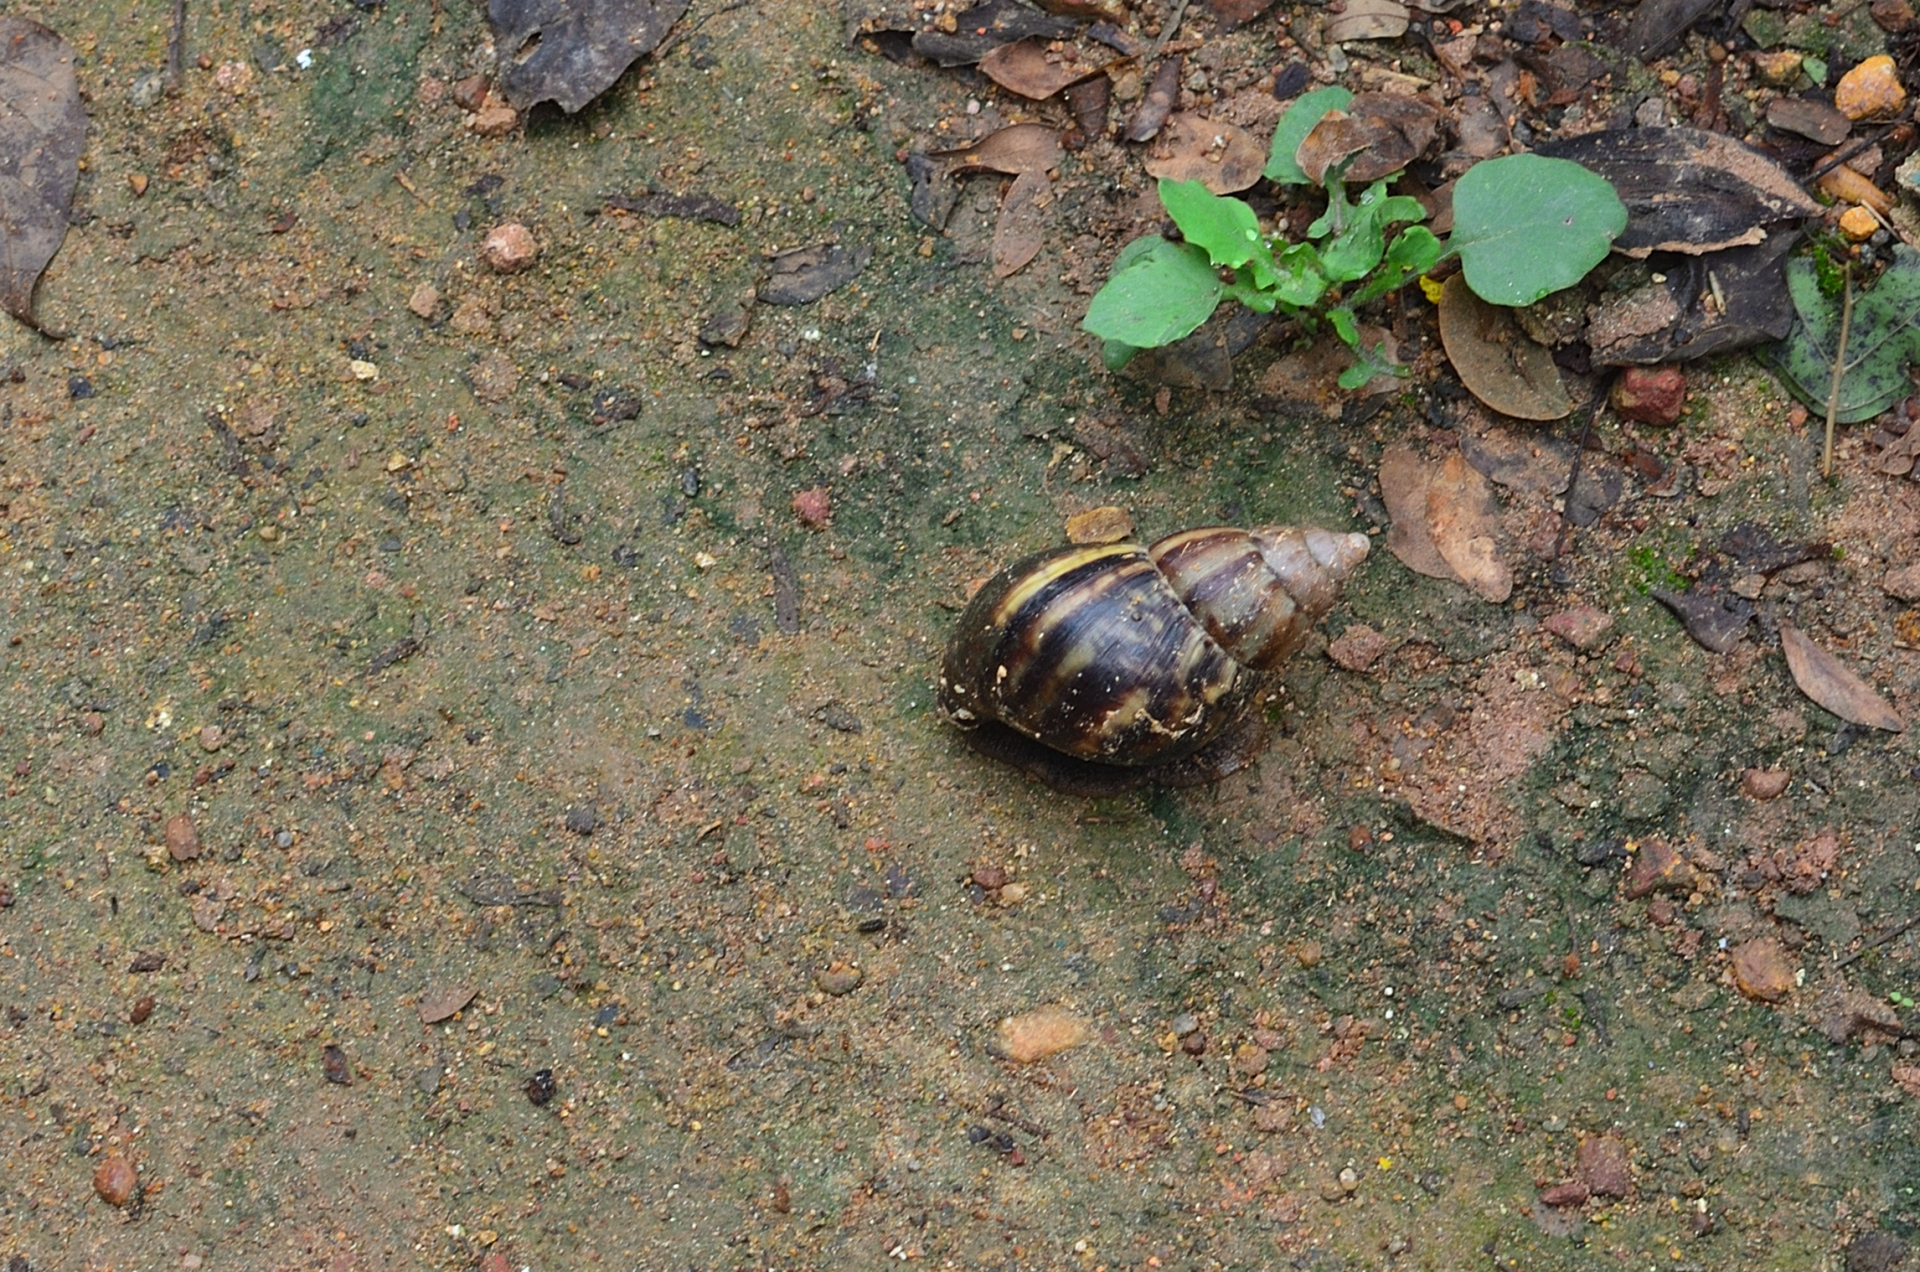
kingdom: Animalia
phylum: Mollusca
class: Gastropoda
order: Stylommatophora
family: Achatinidae
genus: Lissachatina
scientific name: Lissachatina fulica
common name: Giant african snail
